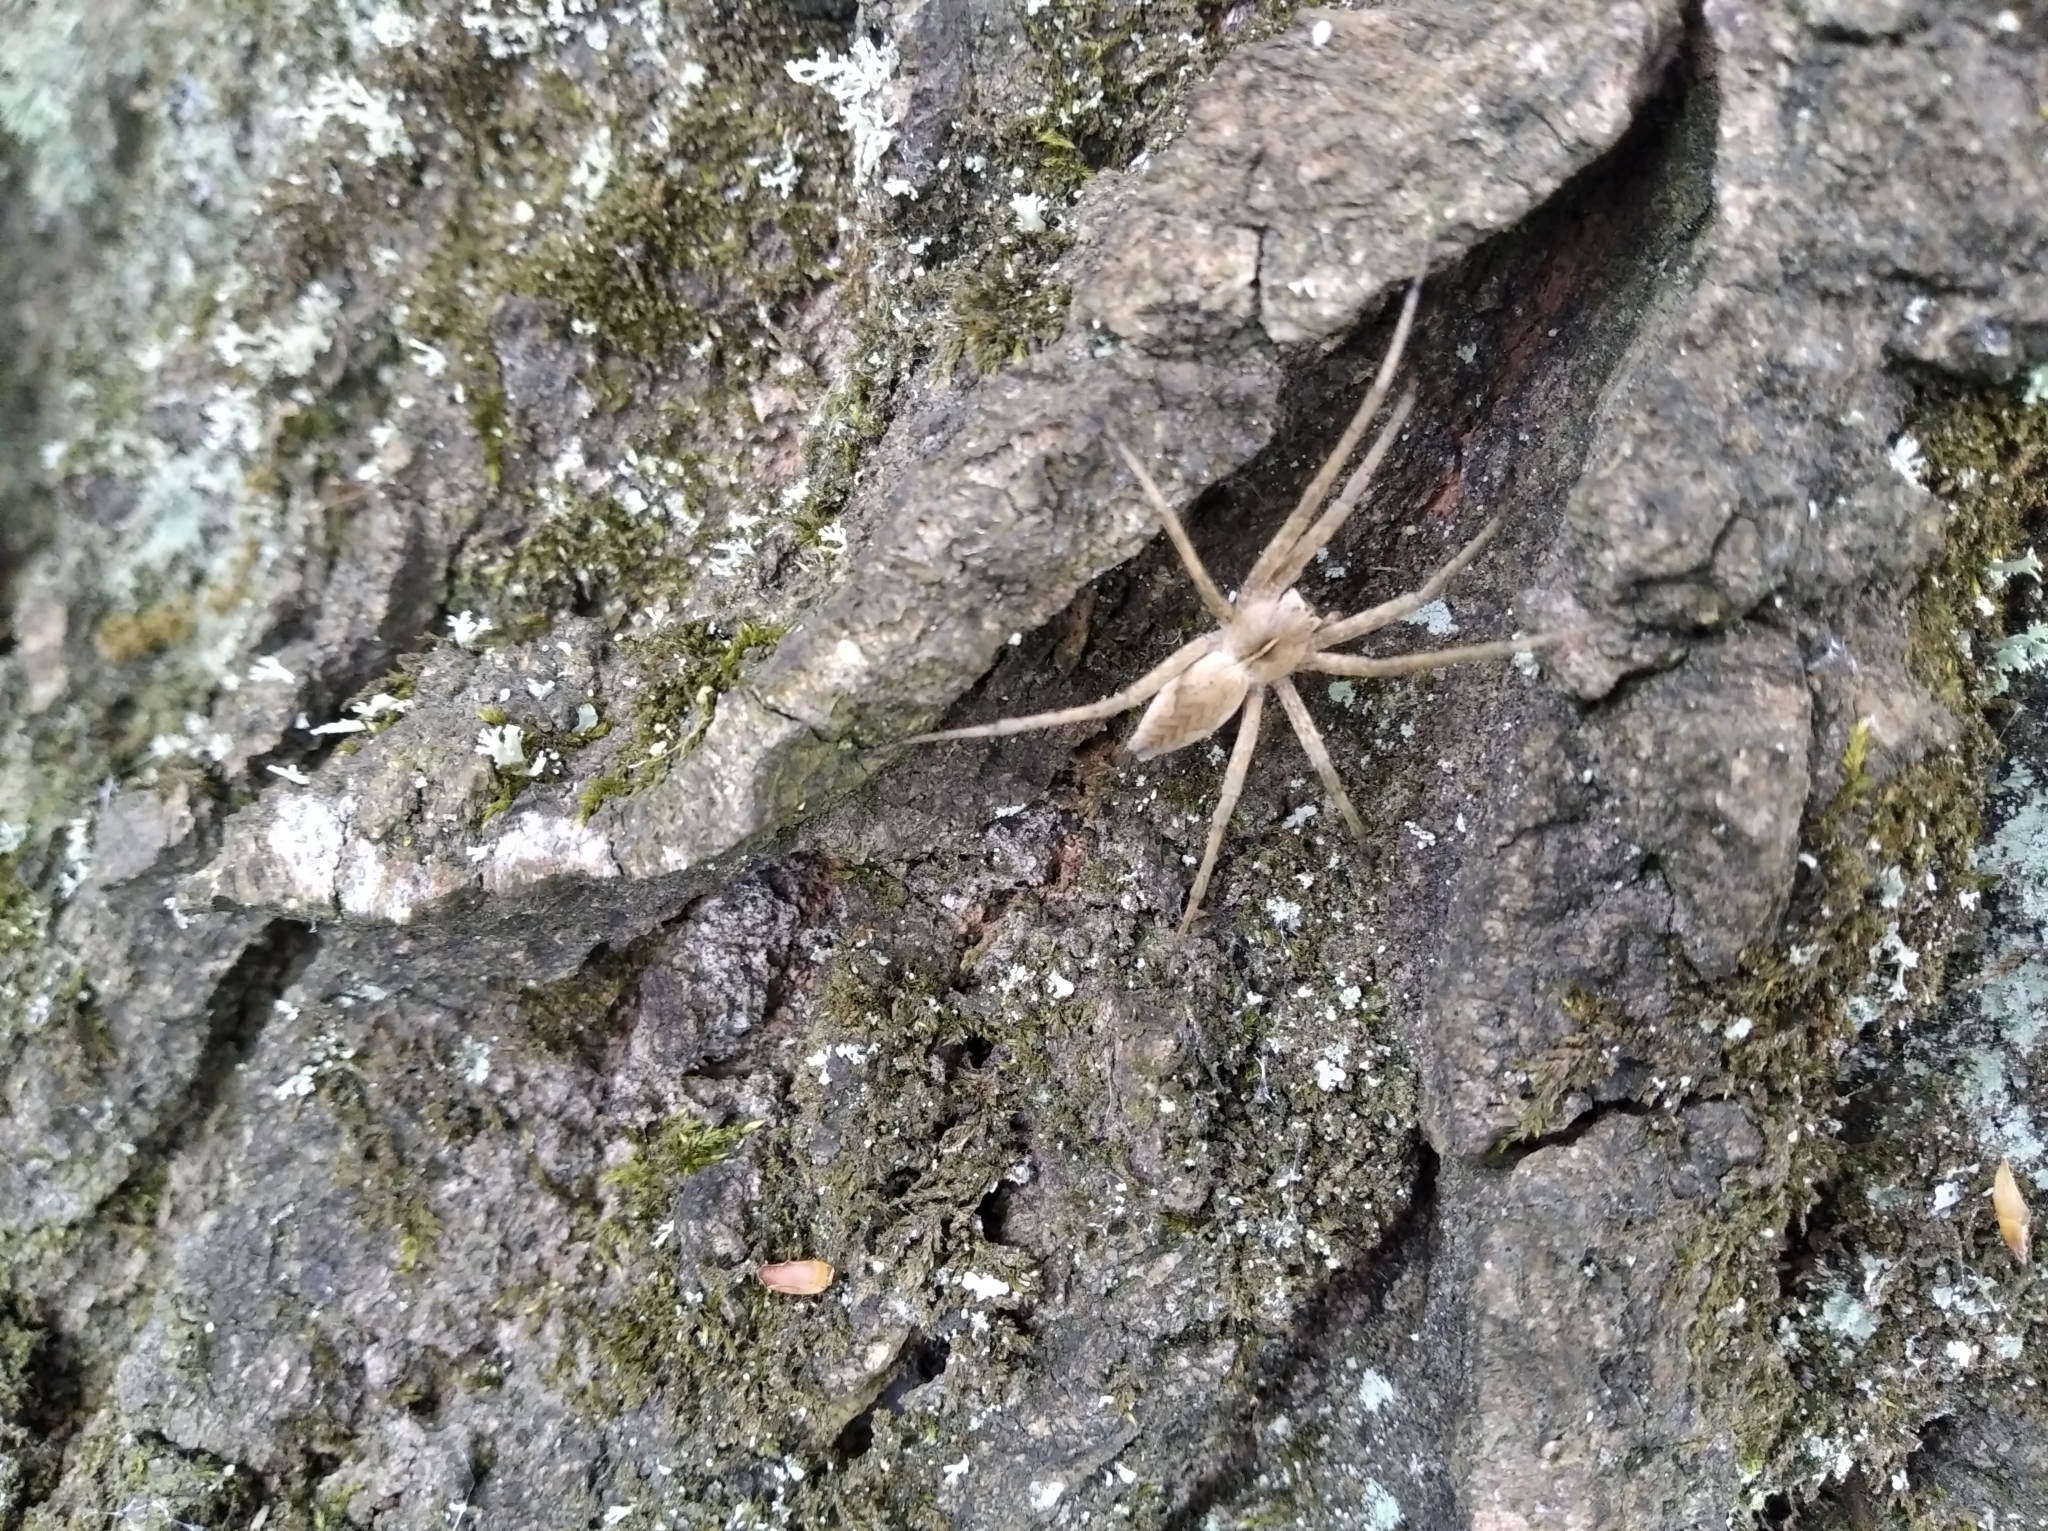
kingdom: Animalia
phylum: Arthropoda
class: Arachnida
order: Araneae
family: Pisauridae
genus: Pisaura
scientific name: Pisaura
